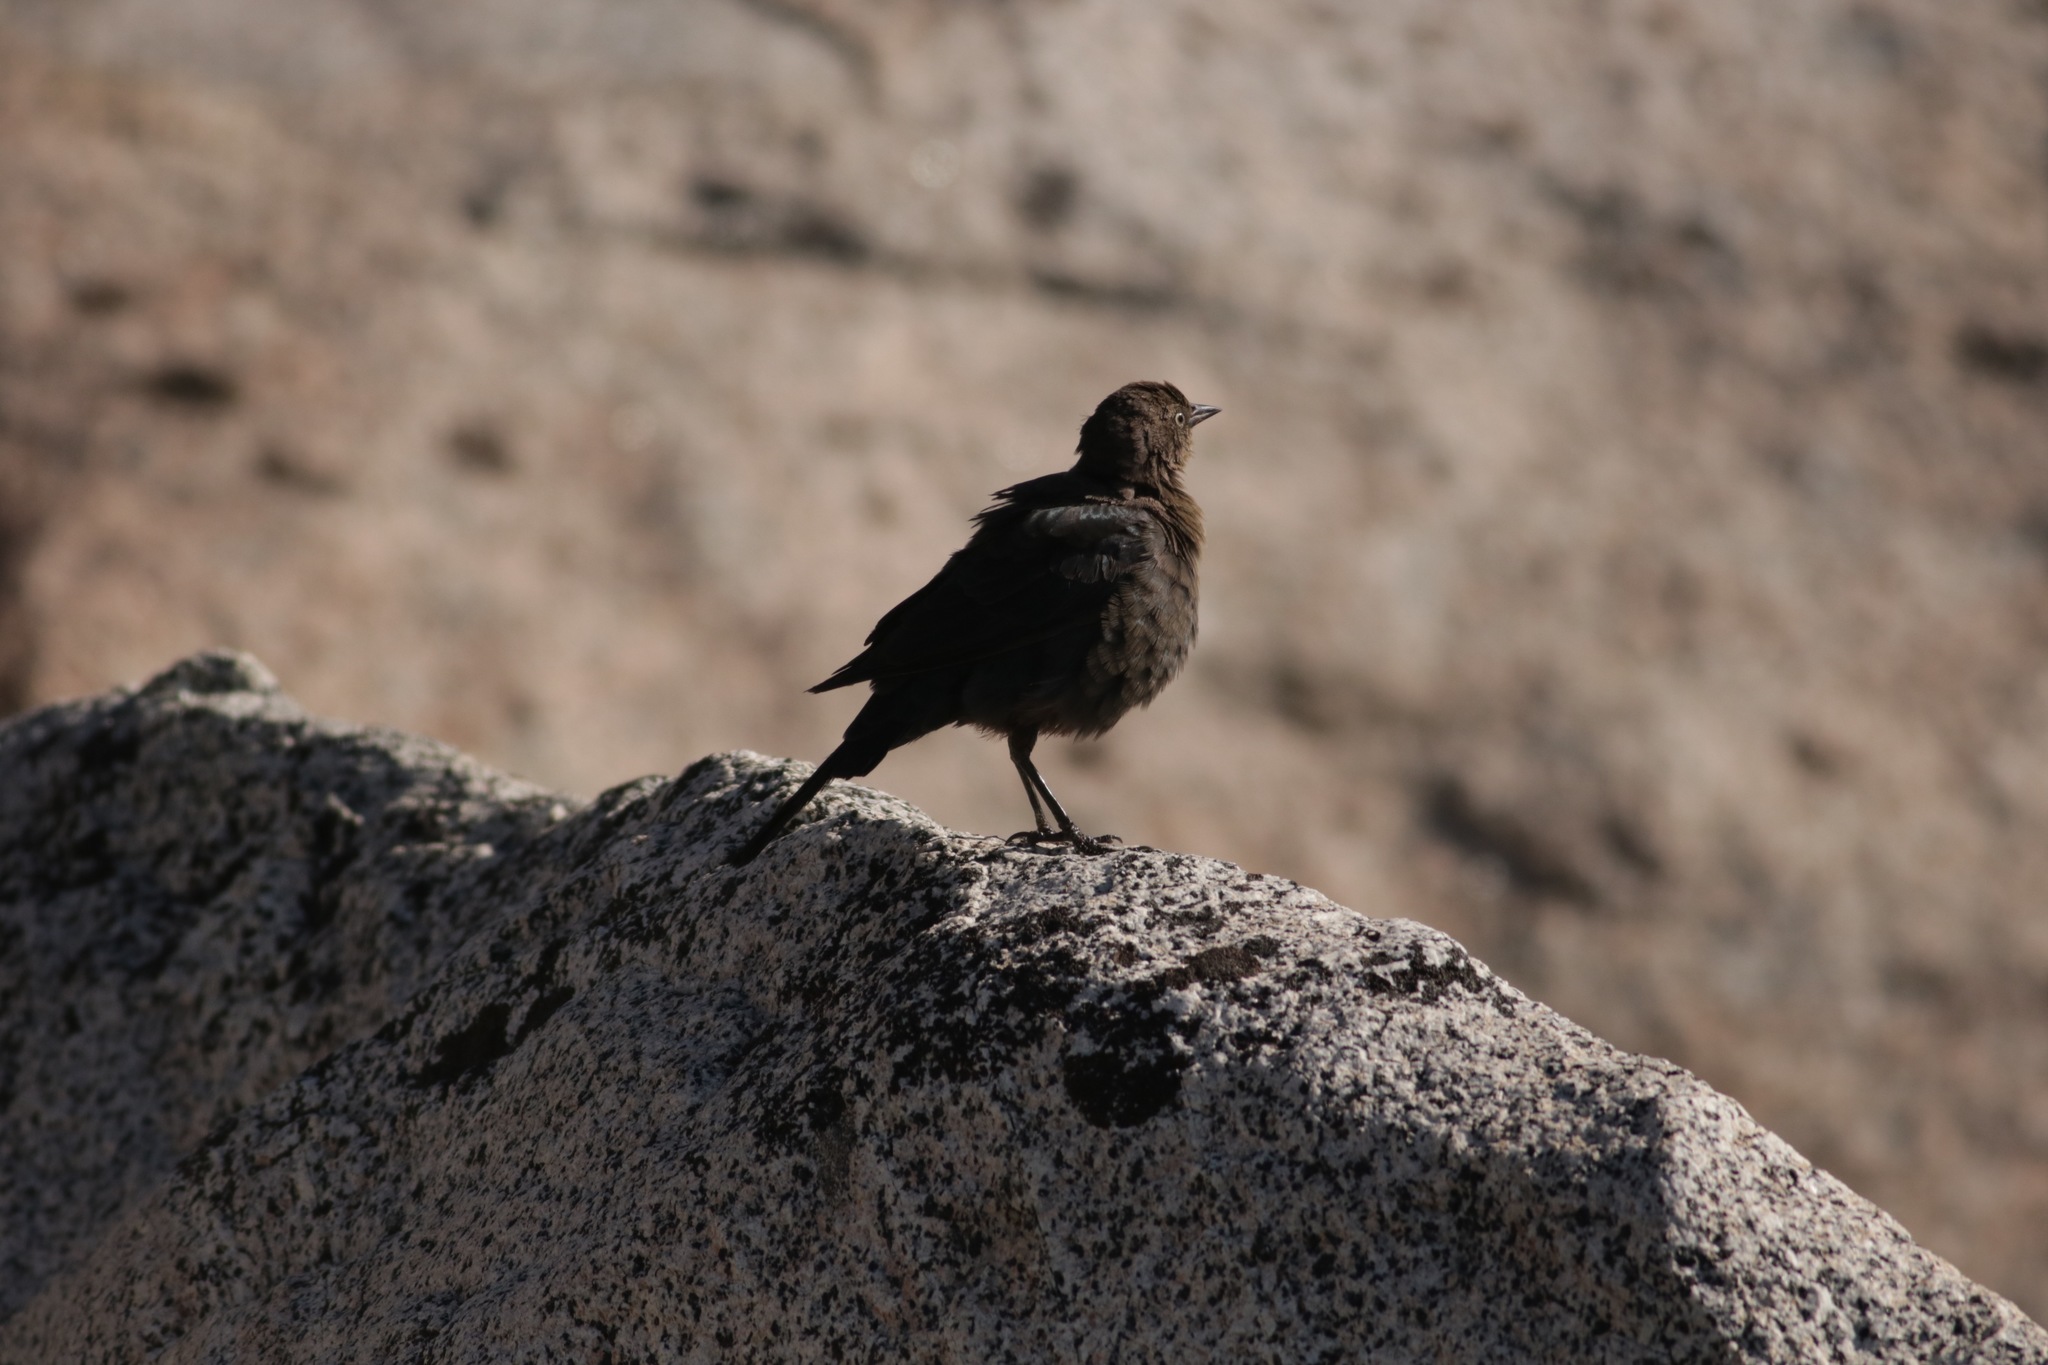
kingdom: Animalia
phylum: Chordata
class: Aves
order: Passeriformes
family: Icteridae
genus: Euphagus
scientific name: Euphagus cyanocephalus
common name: Brewer's blackbird
